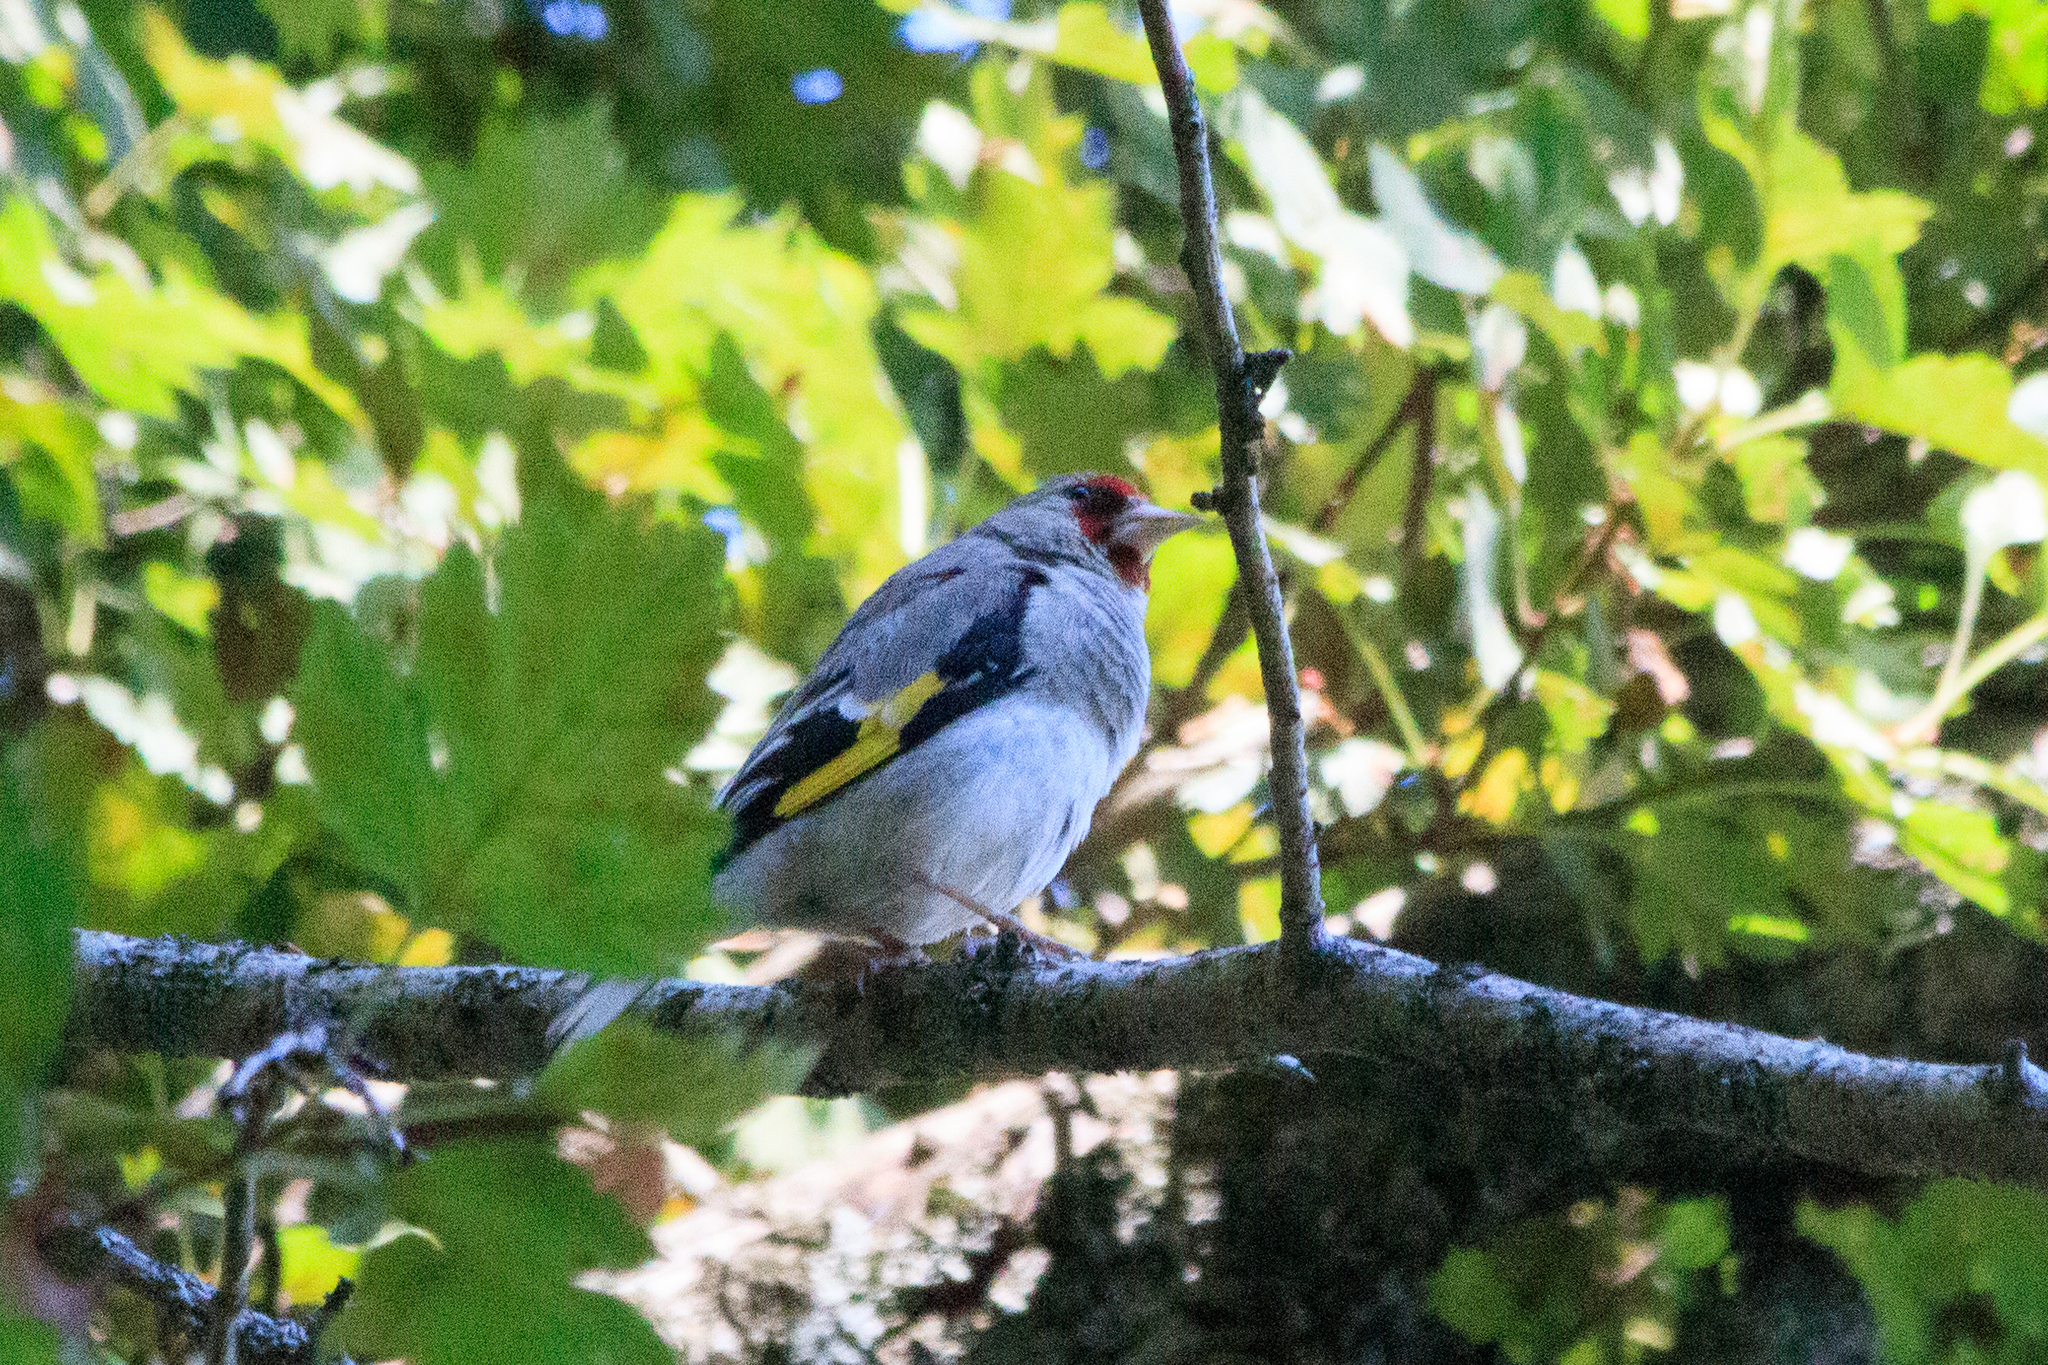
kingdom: Animalia
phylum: Chordata
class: Aves
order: Passeriformes
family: Fringillidae
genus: Carduelis
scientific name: Carduelis carduelis
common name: European goldfinch
